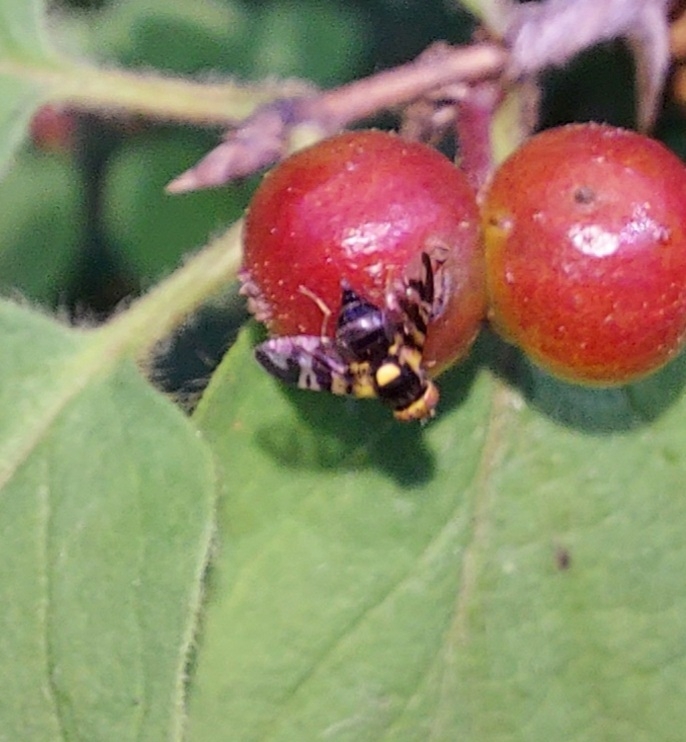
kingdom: Animalia
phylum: Arthropoda
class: Insecta
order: Diptera
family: Tephritidae
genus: Rhagoletis
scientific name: Rhagoletis cerasi
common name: European cherry fruit fly
